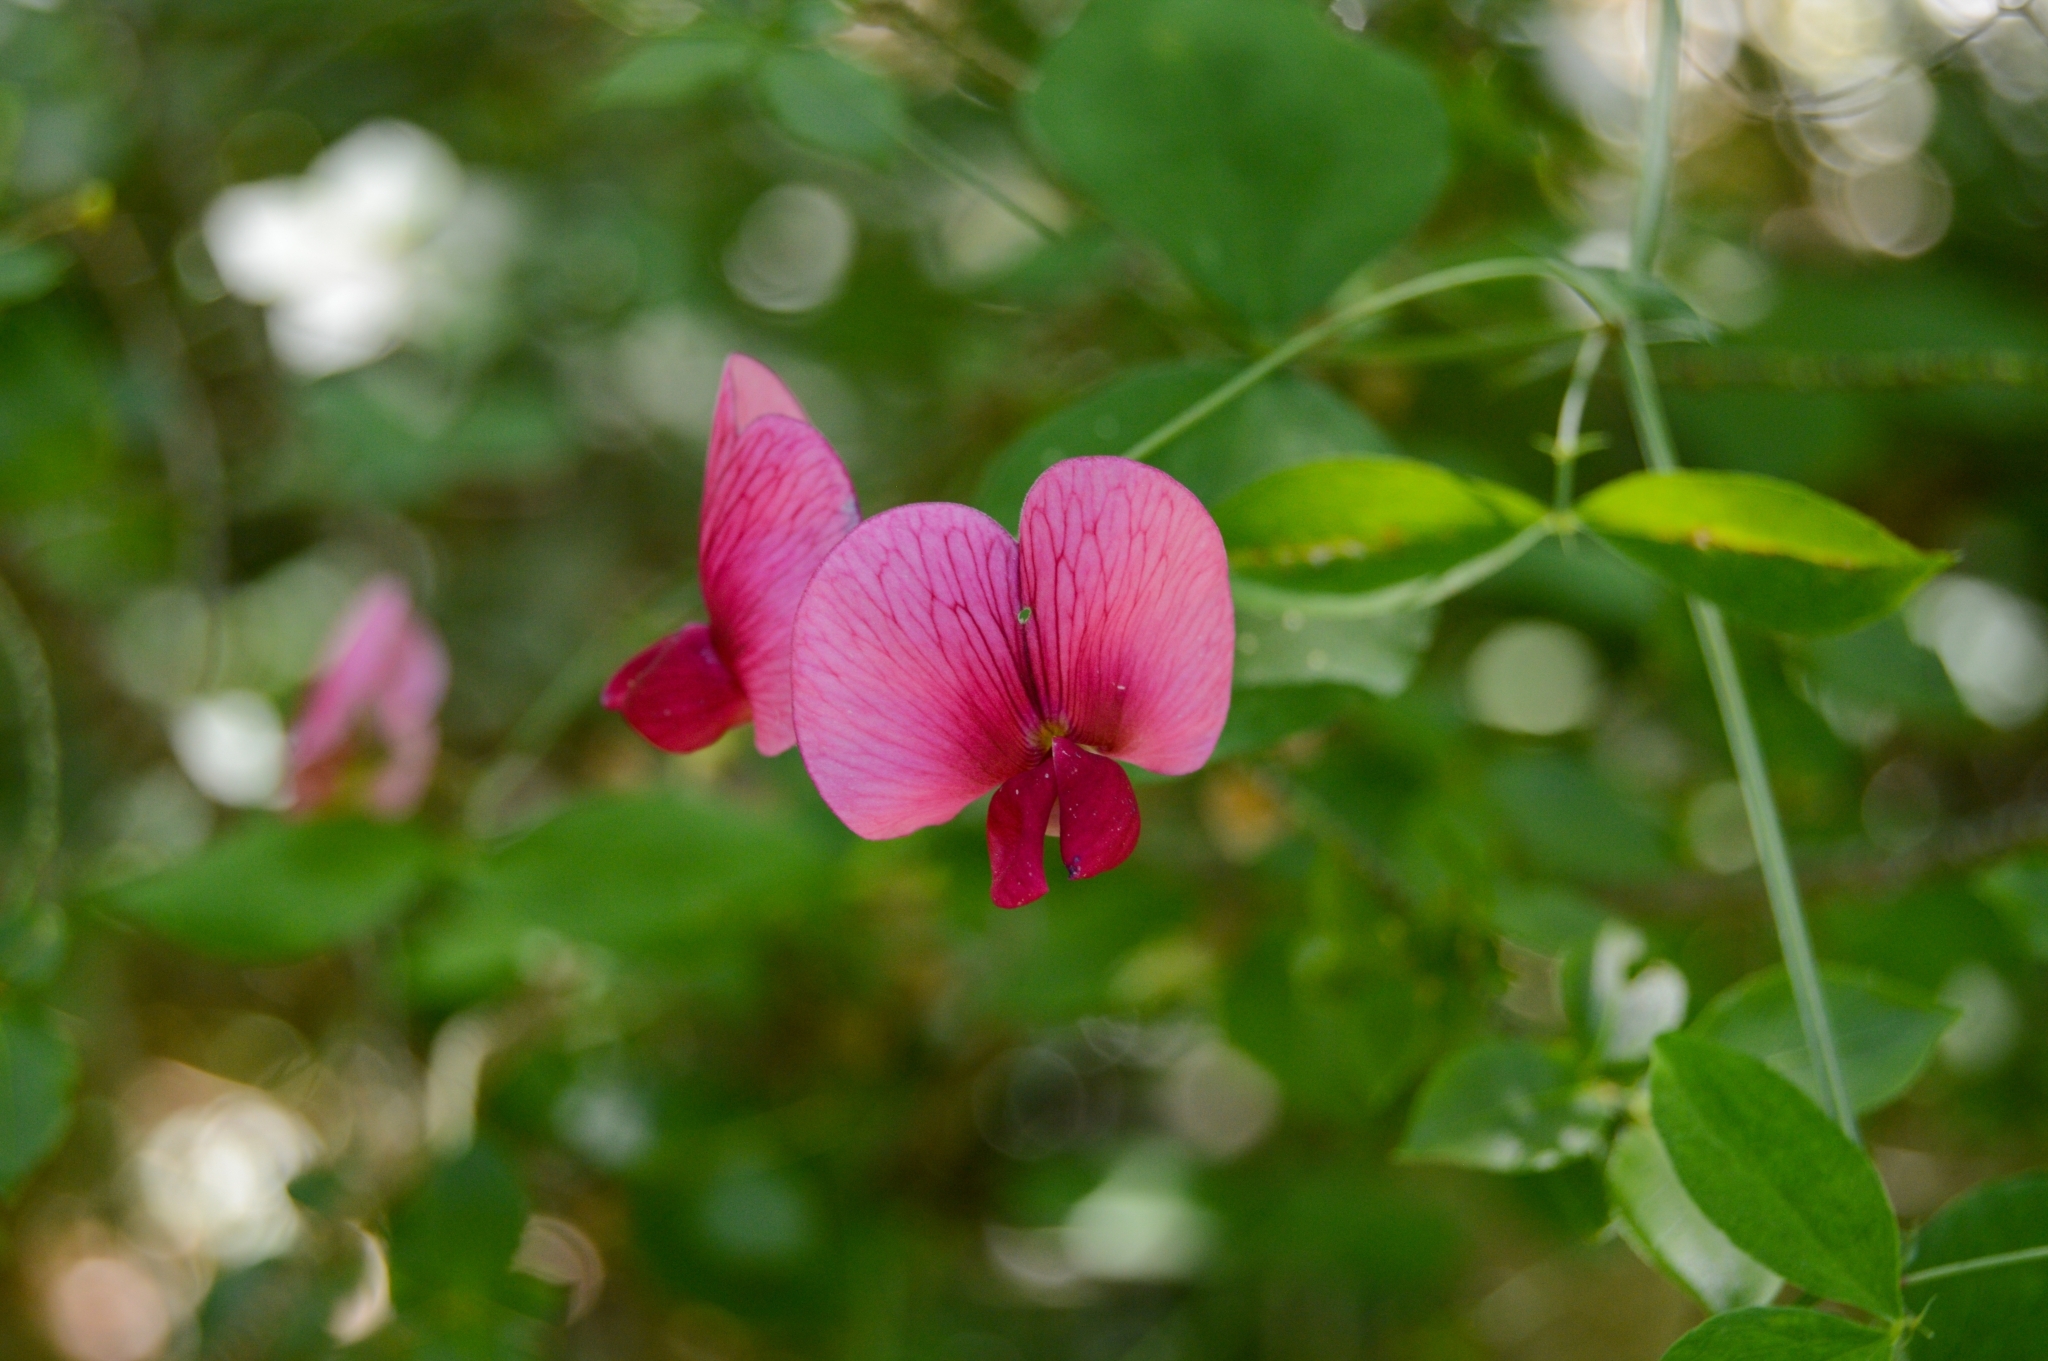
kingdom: Plantae
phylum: Tracheophyta
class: Magnoliopsida
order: Fabales
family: Fabaceae
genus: Lathyrus
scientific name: Lathyrus rotundifolius
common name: Round-leaf vetchling
